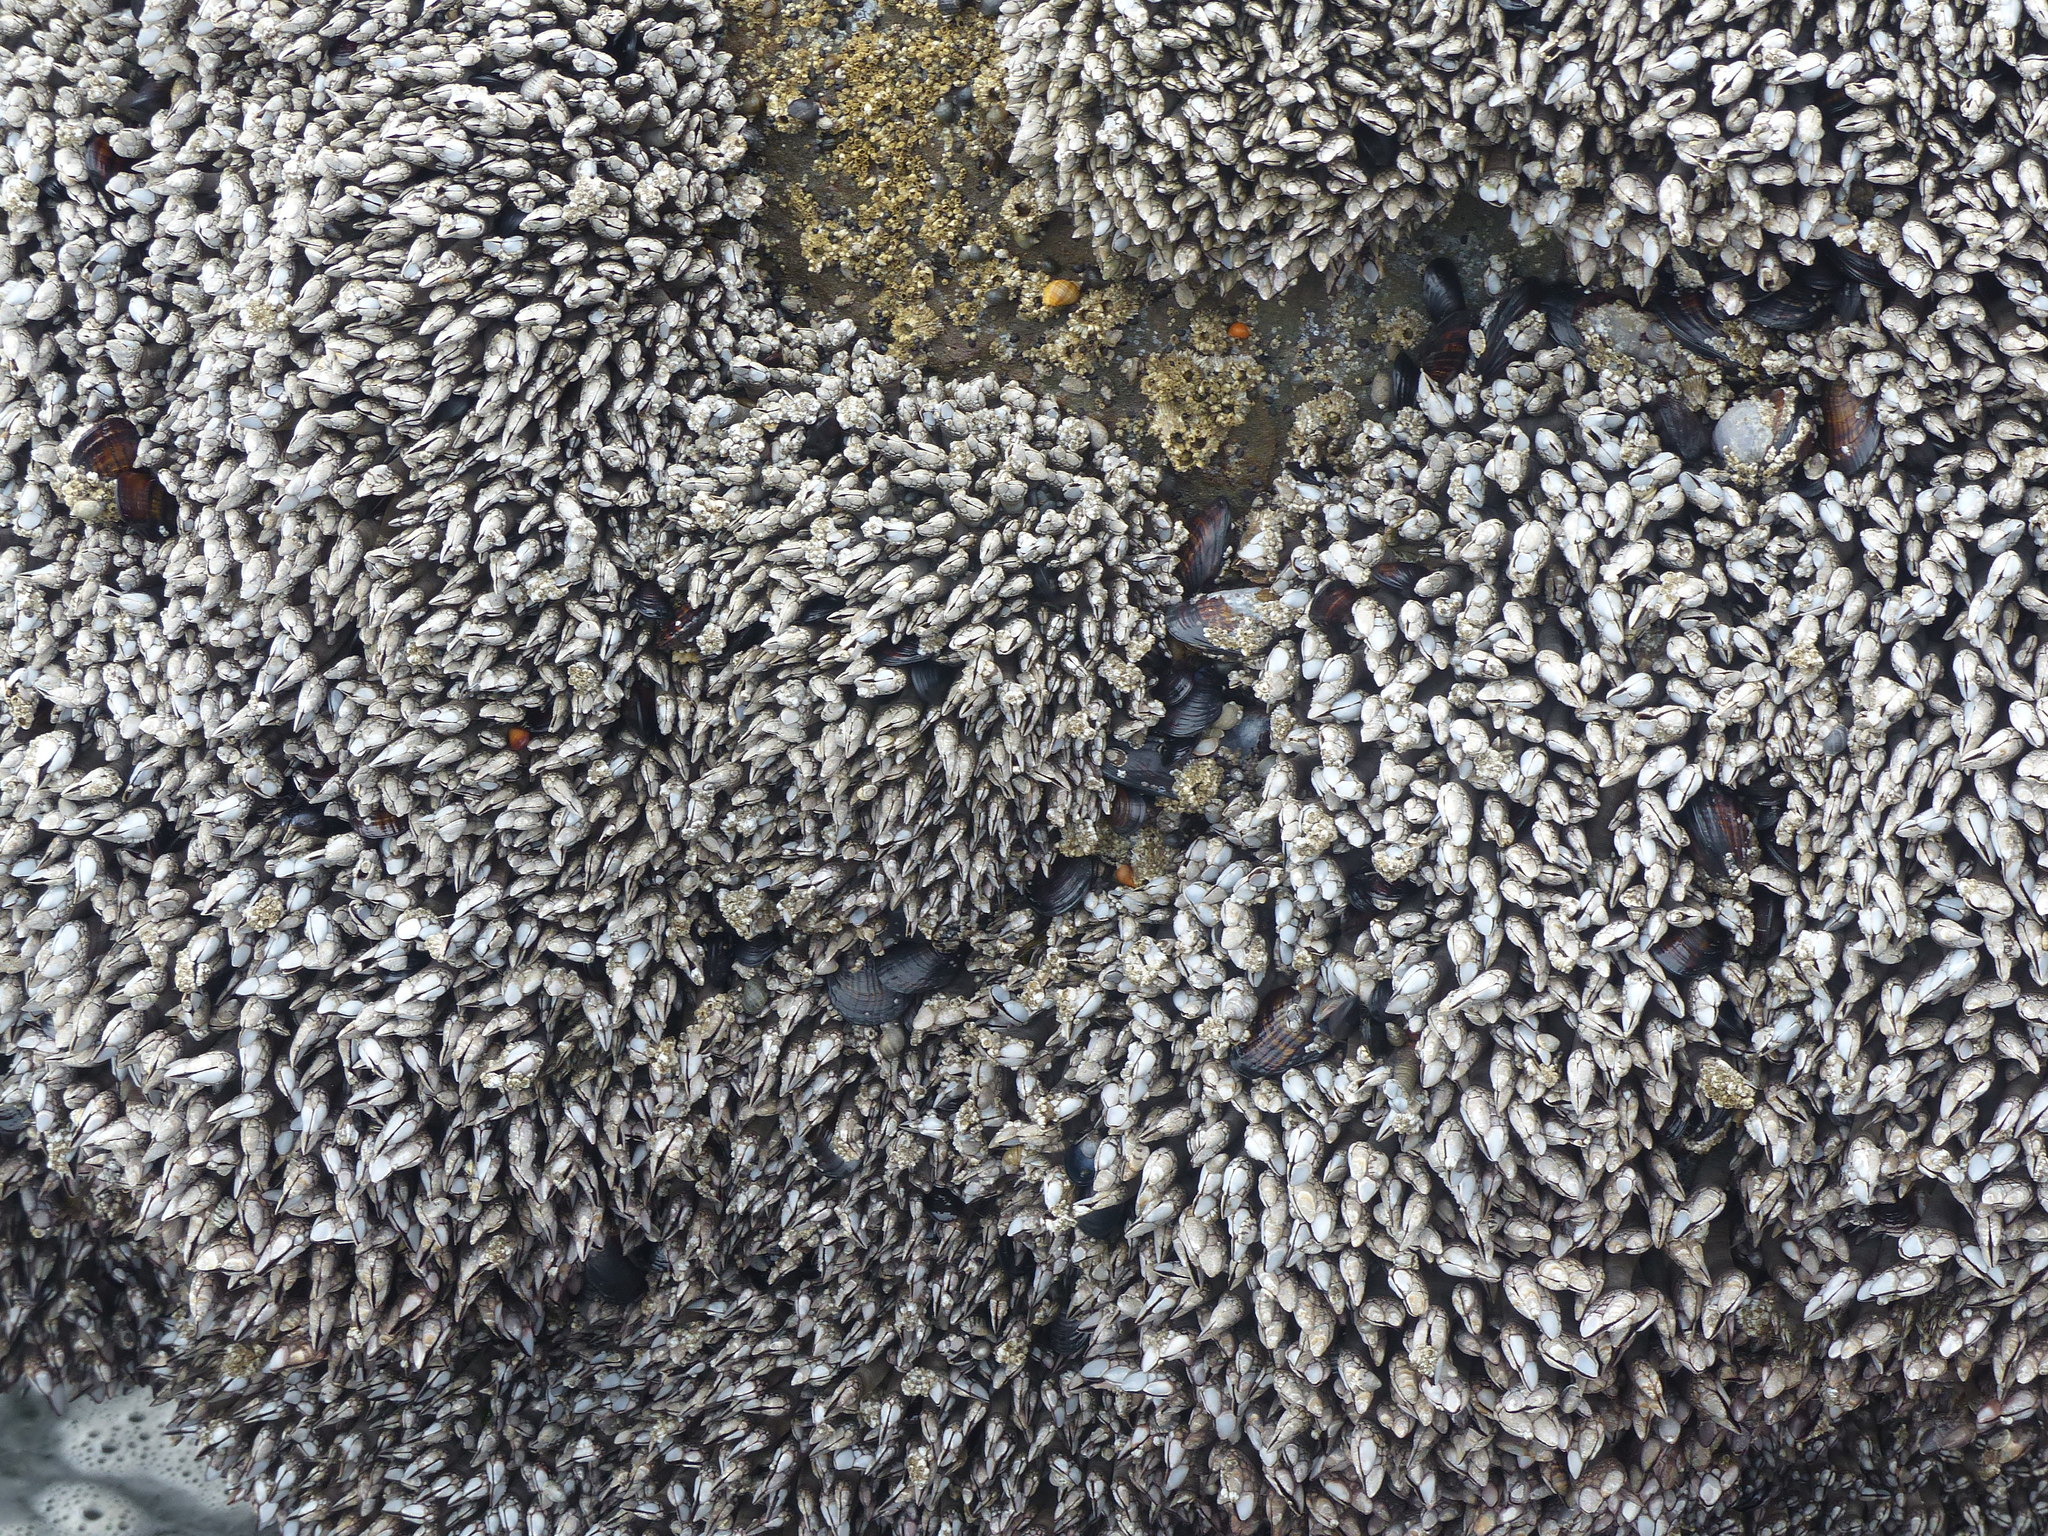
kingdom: Animalia
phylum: Arthropoda
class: Maxillopoda
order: Pedunculata
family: Pollicipedidae
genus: Pollicipes
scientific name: Pollicipes polymerus
